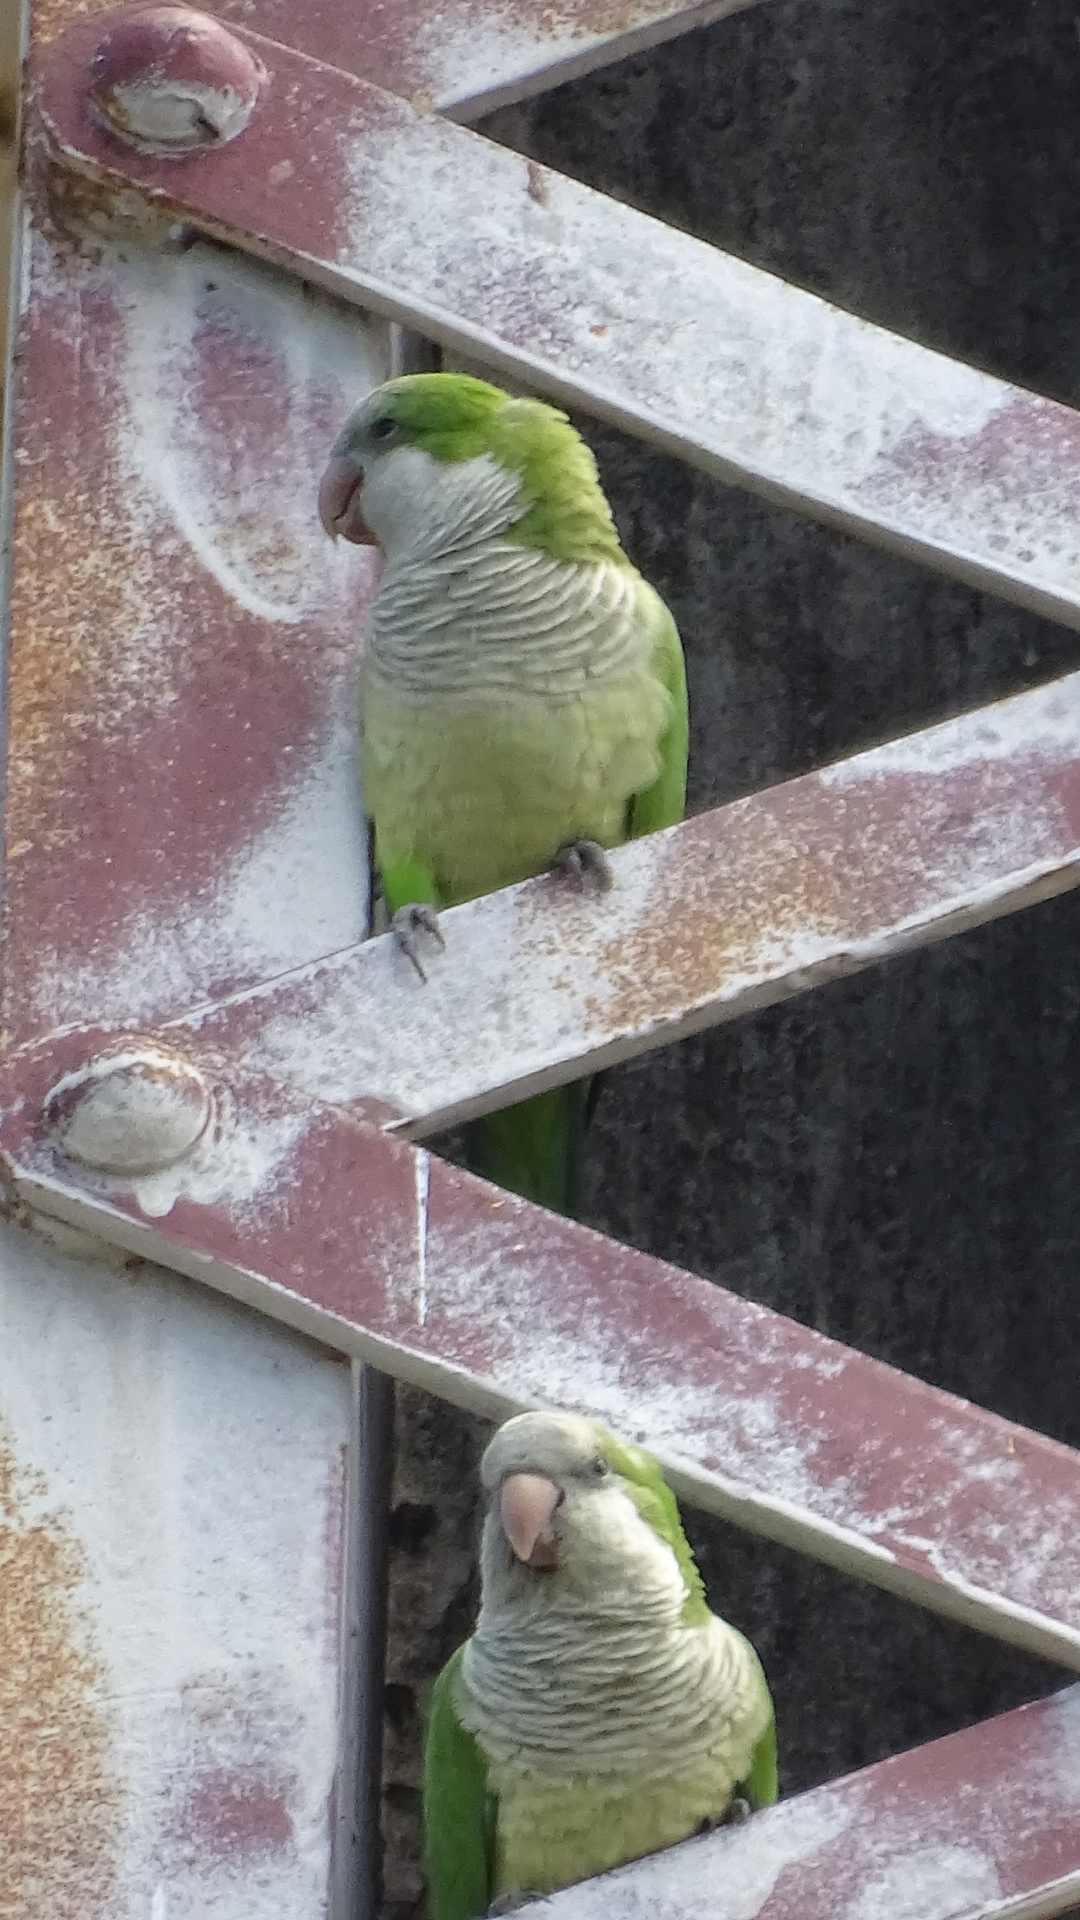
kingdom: Animalia
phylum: Chordata
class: Aves
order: Psittaciformes
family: Psittacidae
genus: Myiopsitta
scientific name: Myiopsitta monachus
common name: Monk parakeet
